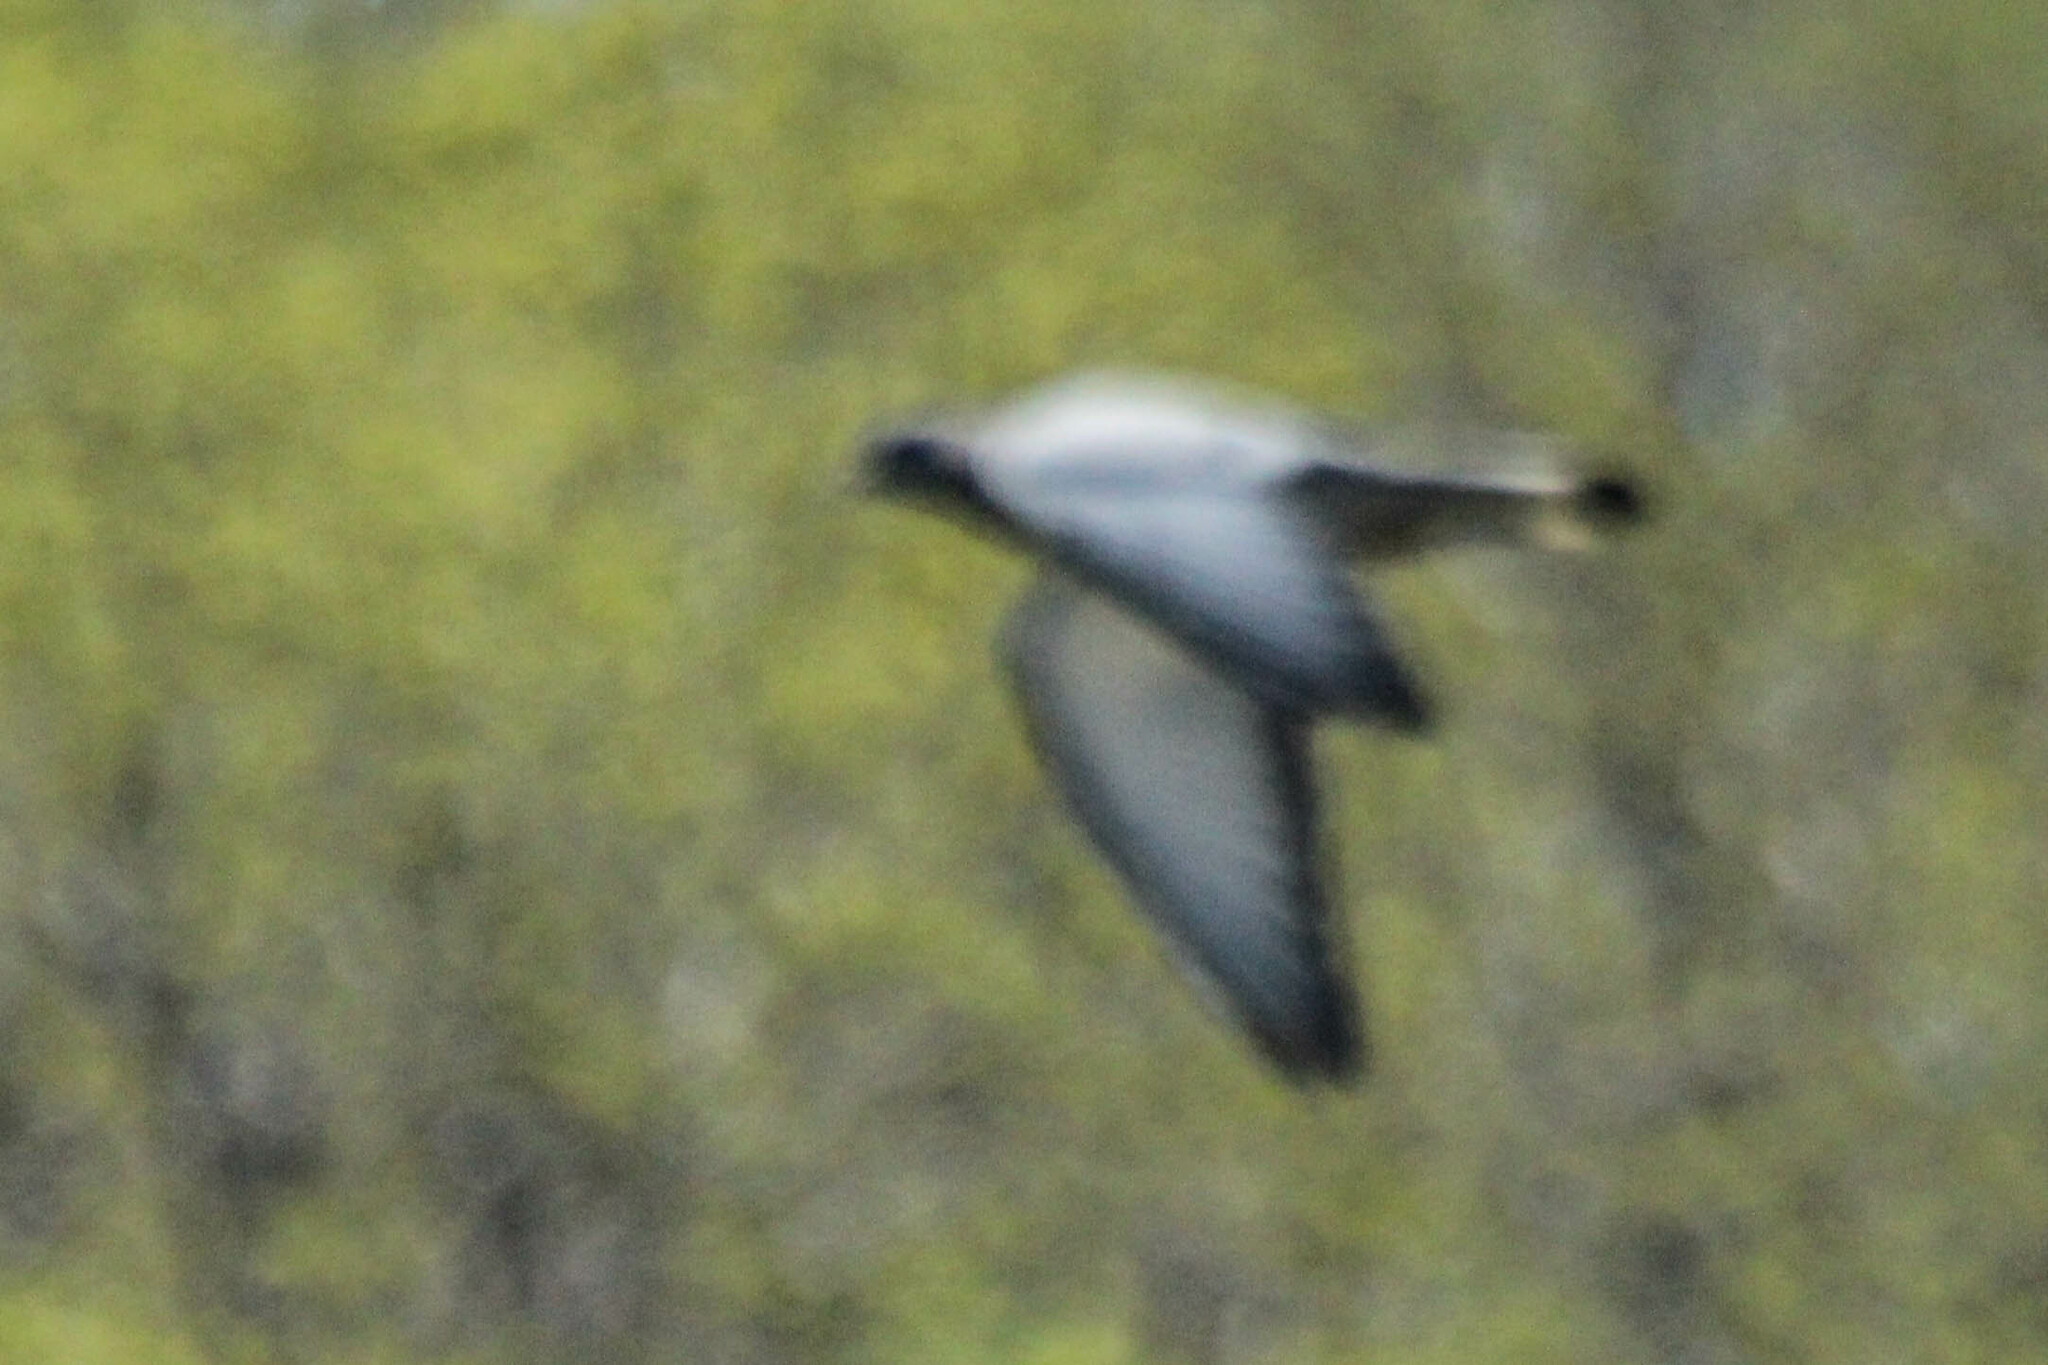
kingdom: Animalia
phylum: Chordata
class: Aves
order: Columbiformes
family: Columbidae
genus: Columba
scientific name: Columba rupestris
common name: Hill pigeon
